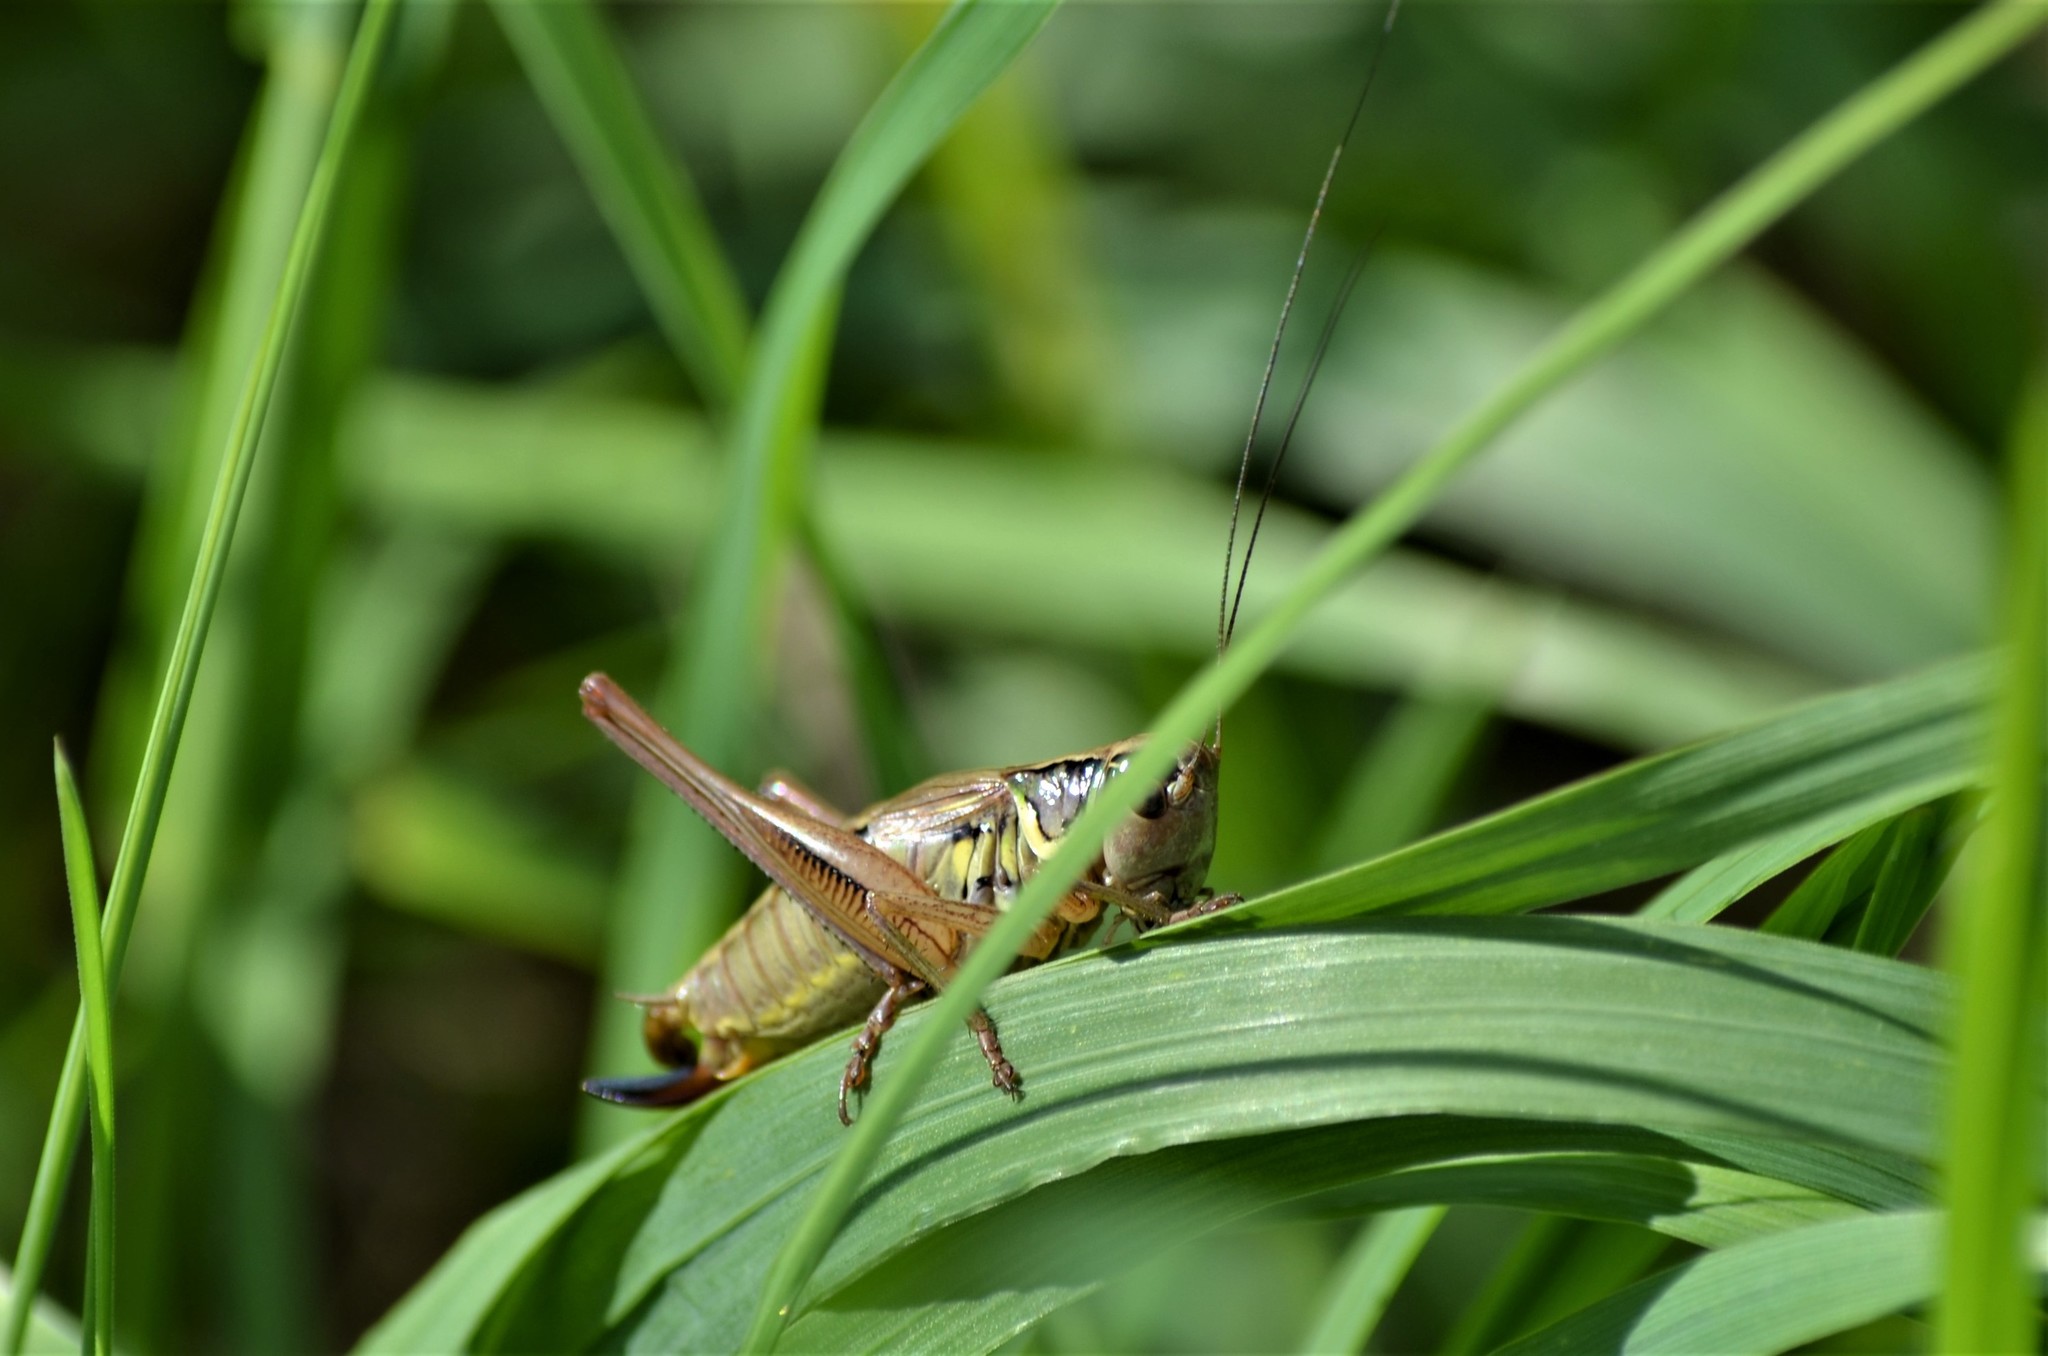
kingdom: Animalia
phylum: Arthropoda
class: Insecta
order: Orthoptera
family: Tettigoniidae
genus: Roeseliana
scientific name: Roeseliana roeselii
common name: Roesel's bush cricket
